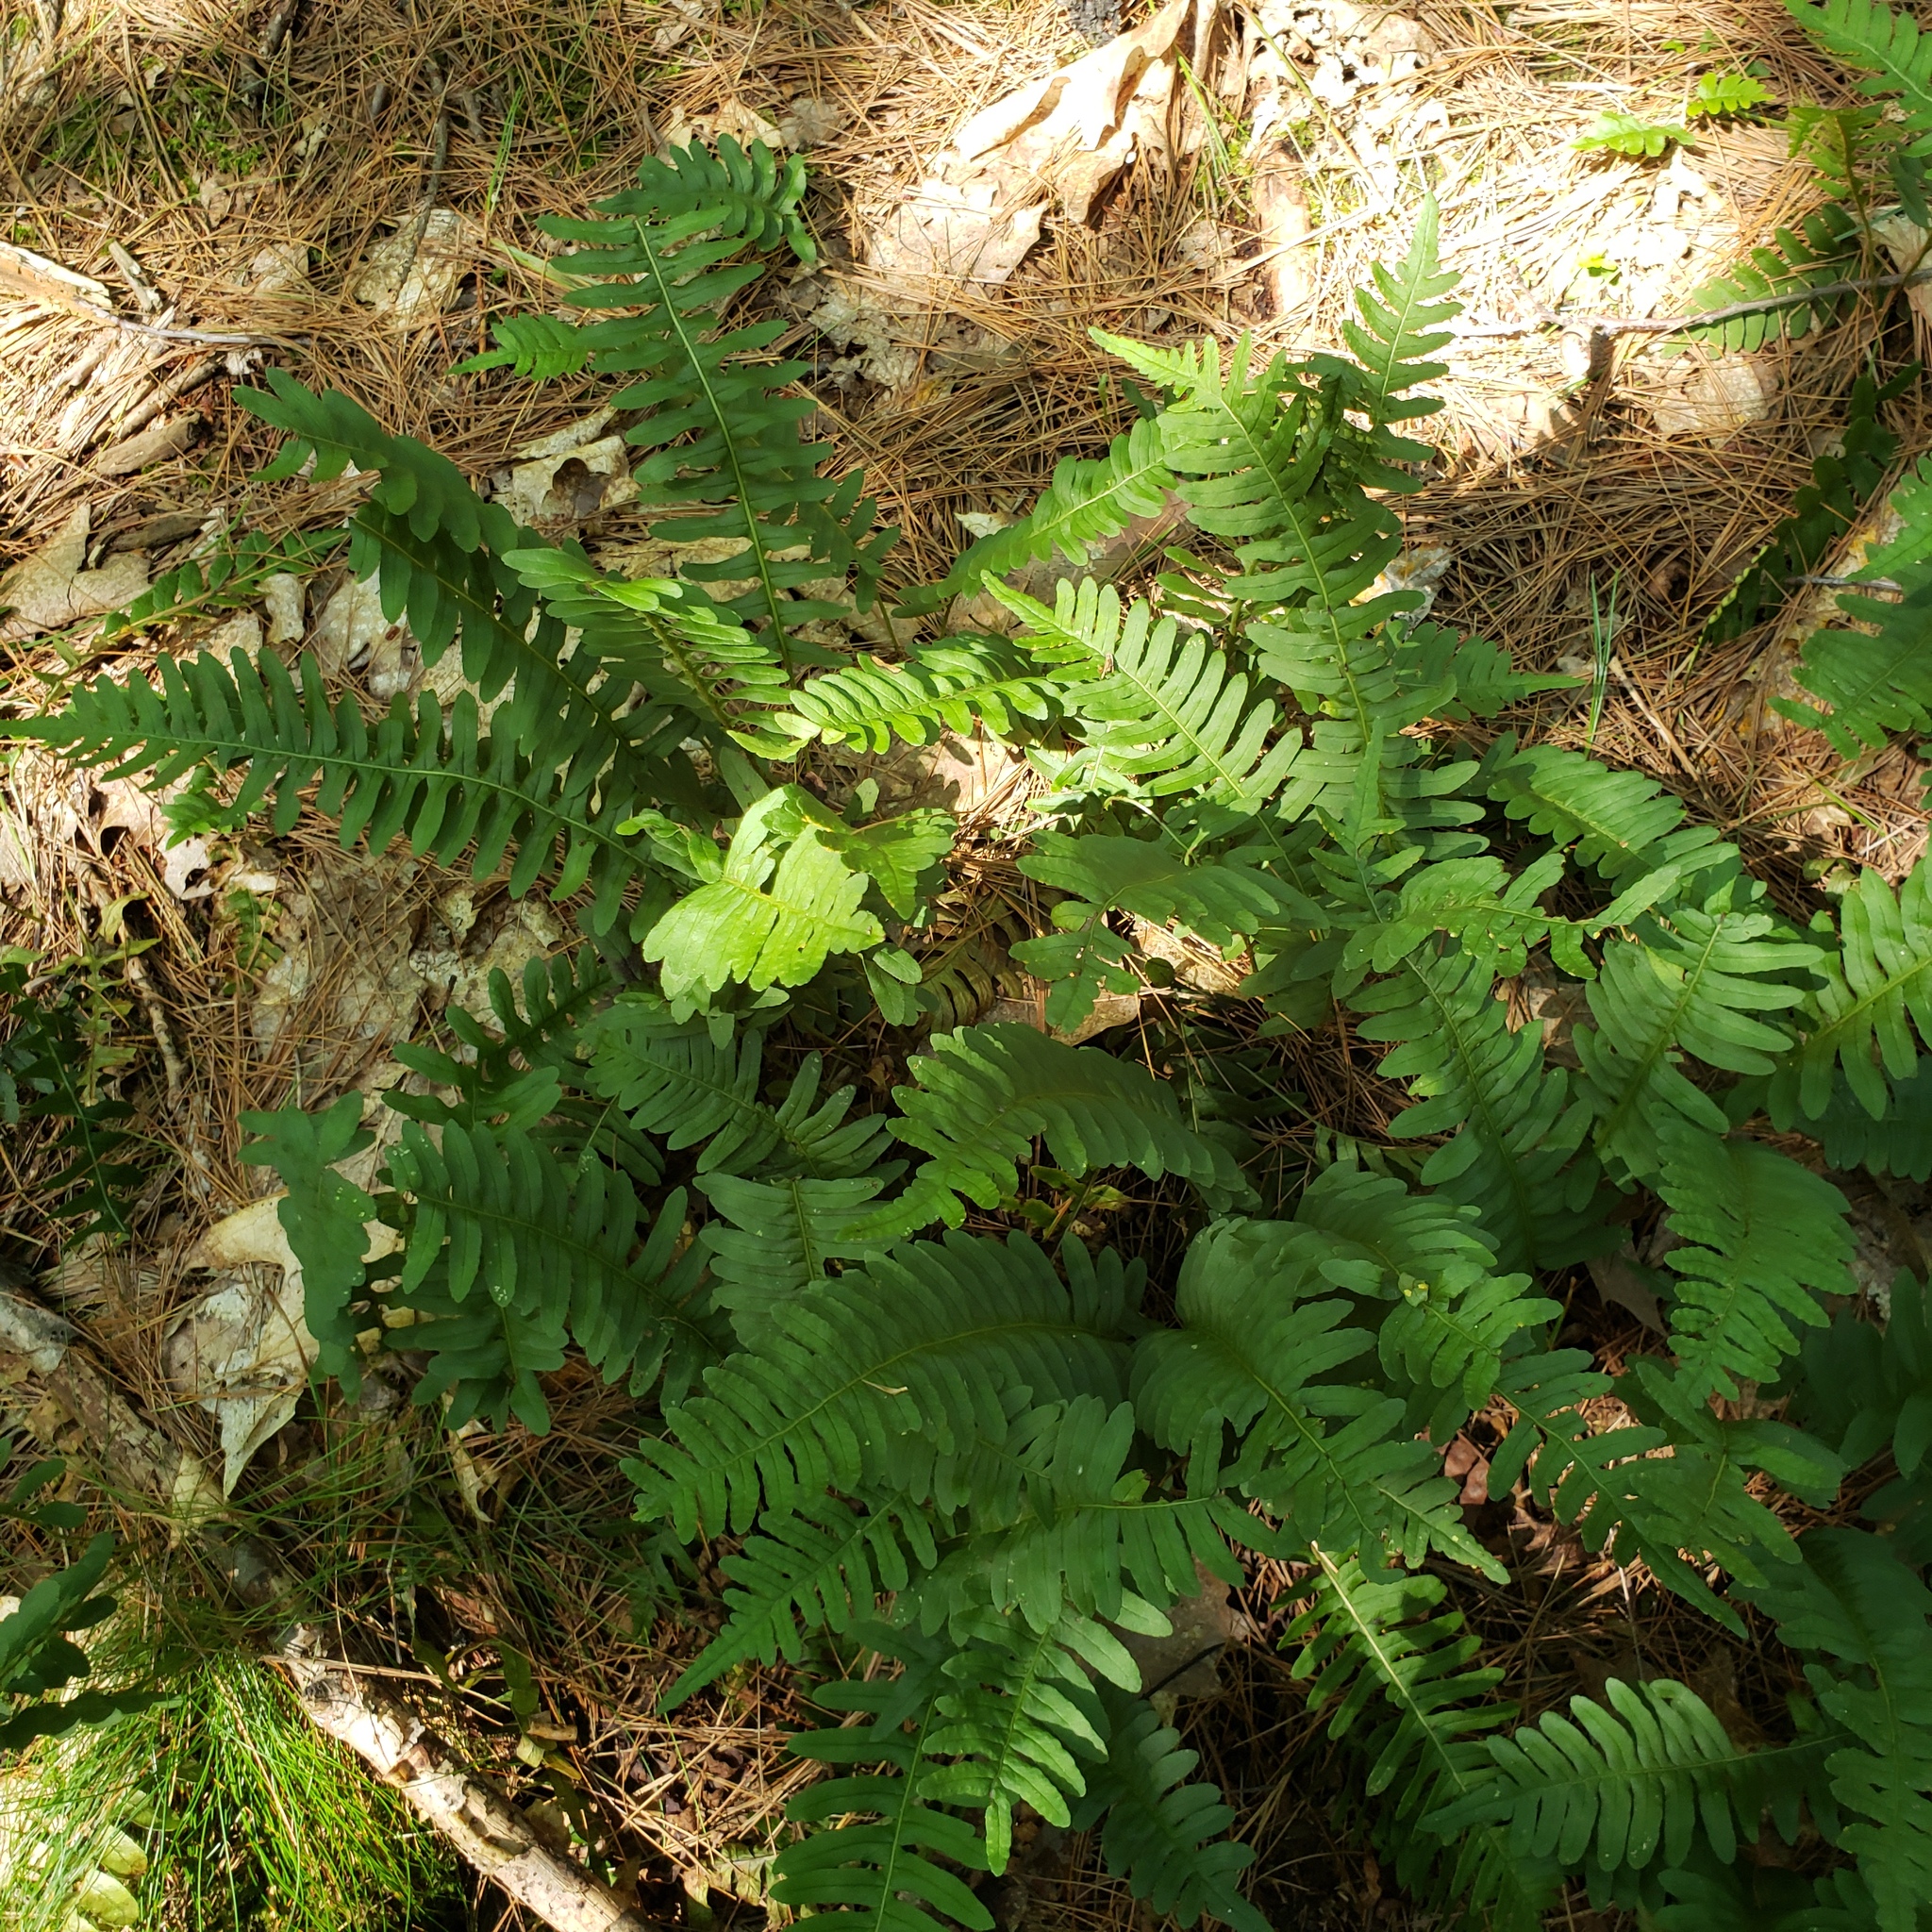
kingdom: Plantae
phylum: Tracheophyta
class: Polypodiopsida
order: Polypodiales
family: Polypodiaceae
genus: Polypodium
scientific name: Polypodium virginianum
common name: American wall fern
